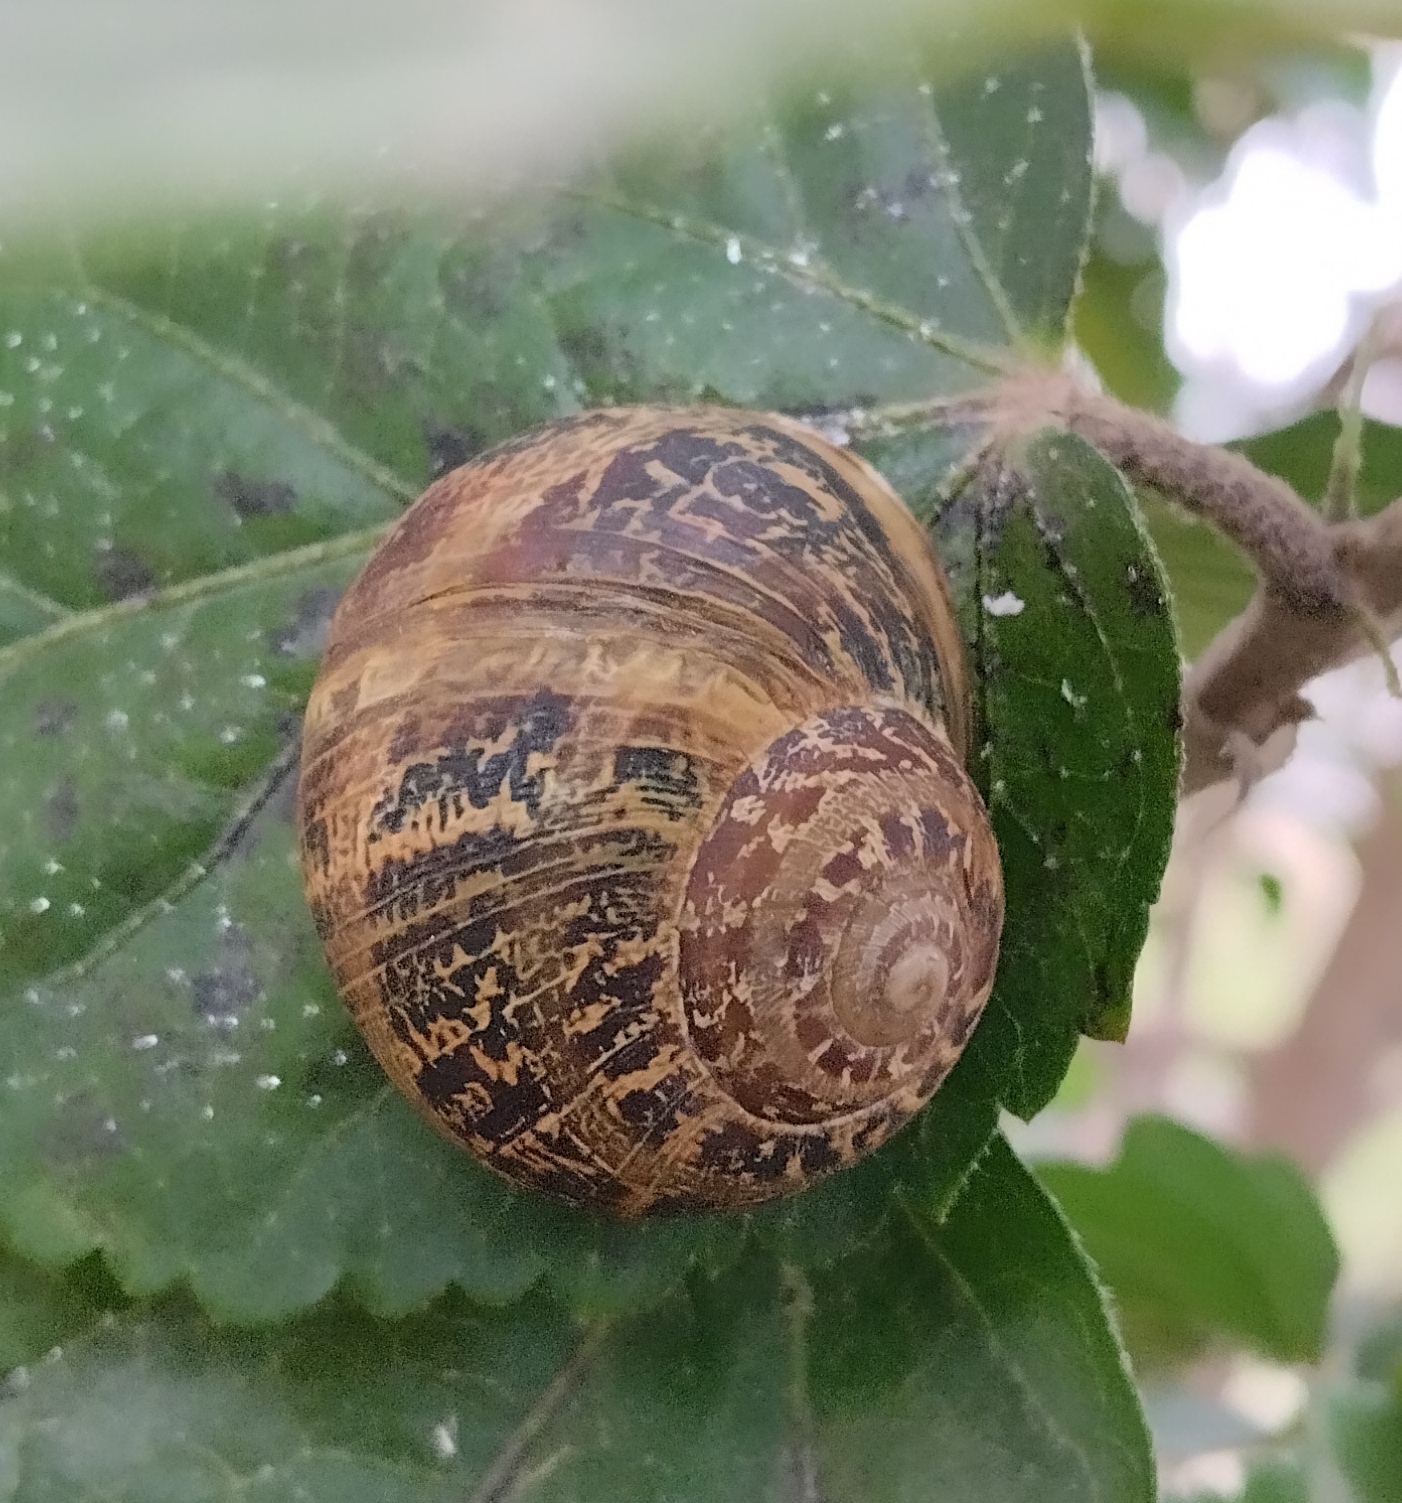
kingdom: Animalia
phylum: Mollusca
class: Gastropoda
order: Stylommatophora
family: Helicidae
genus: Cornu
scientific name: Cornu aspersum
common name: Brown garden snail
